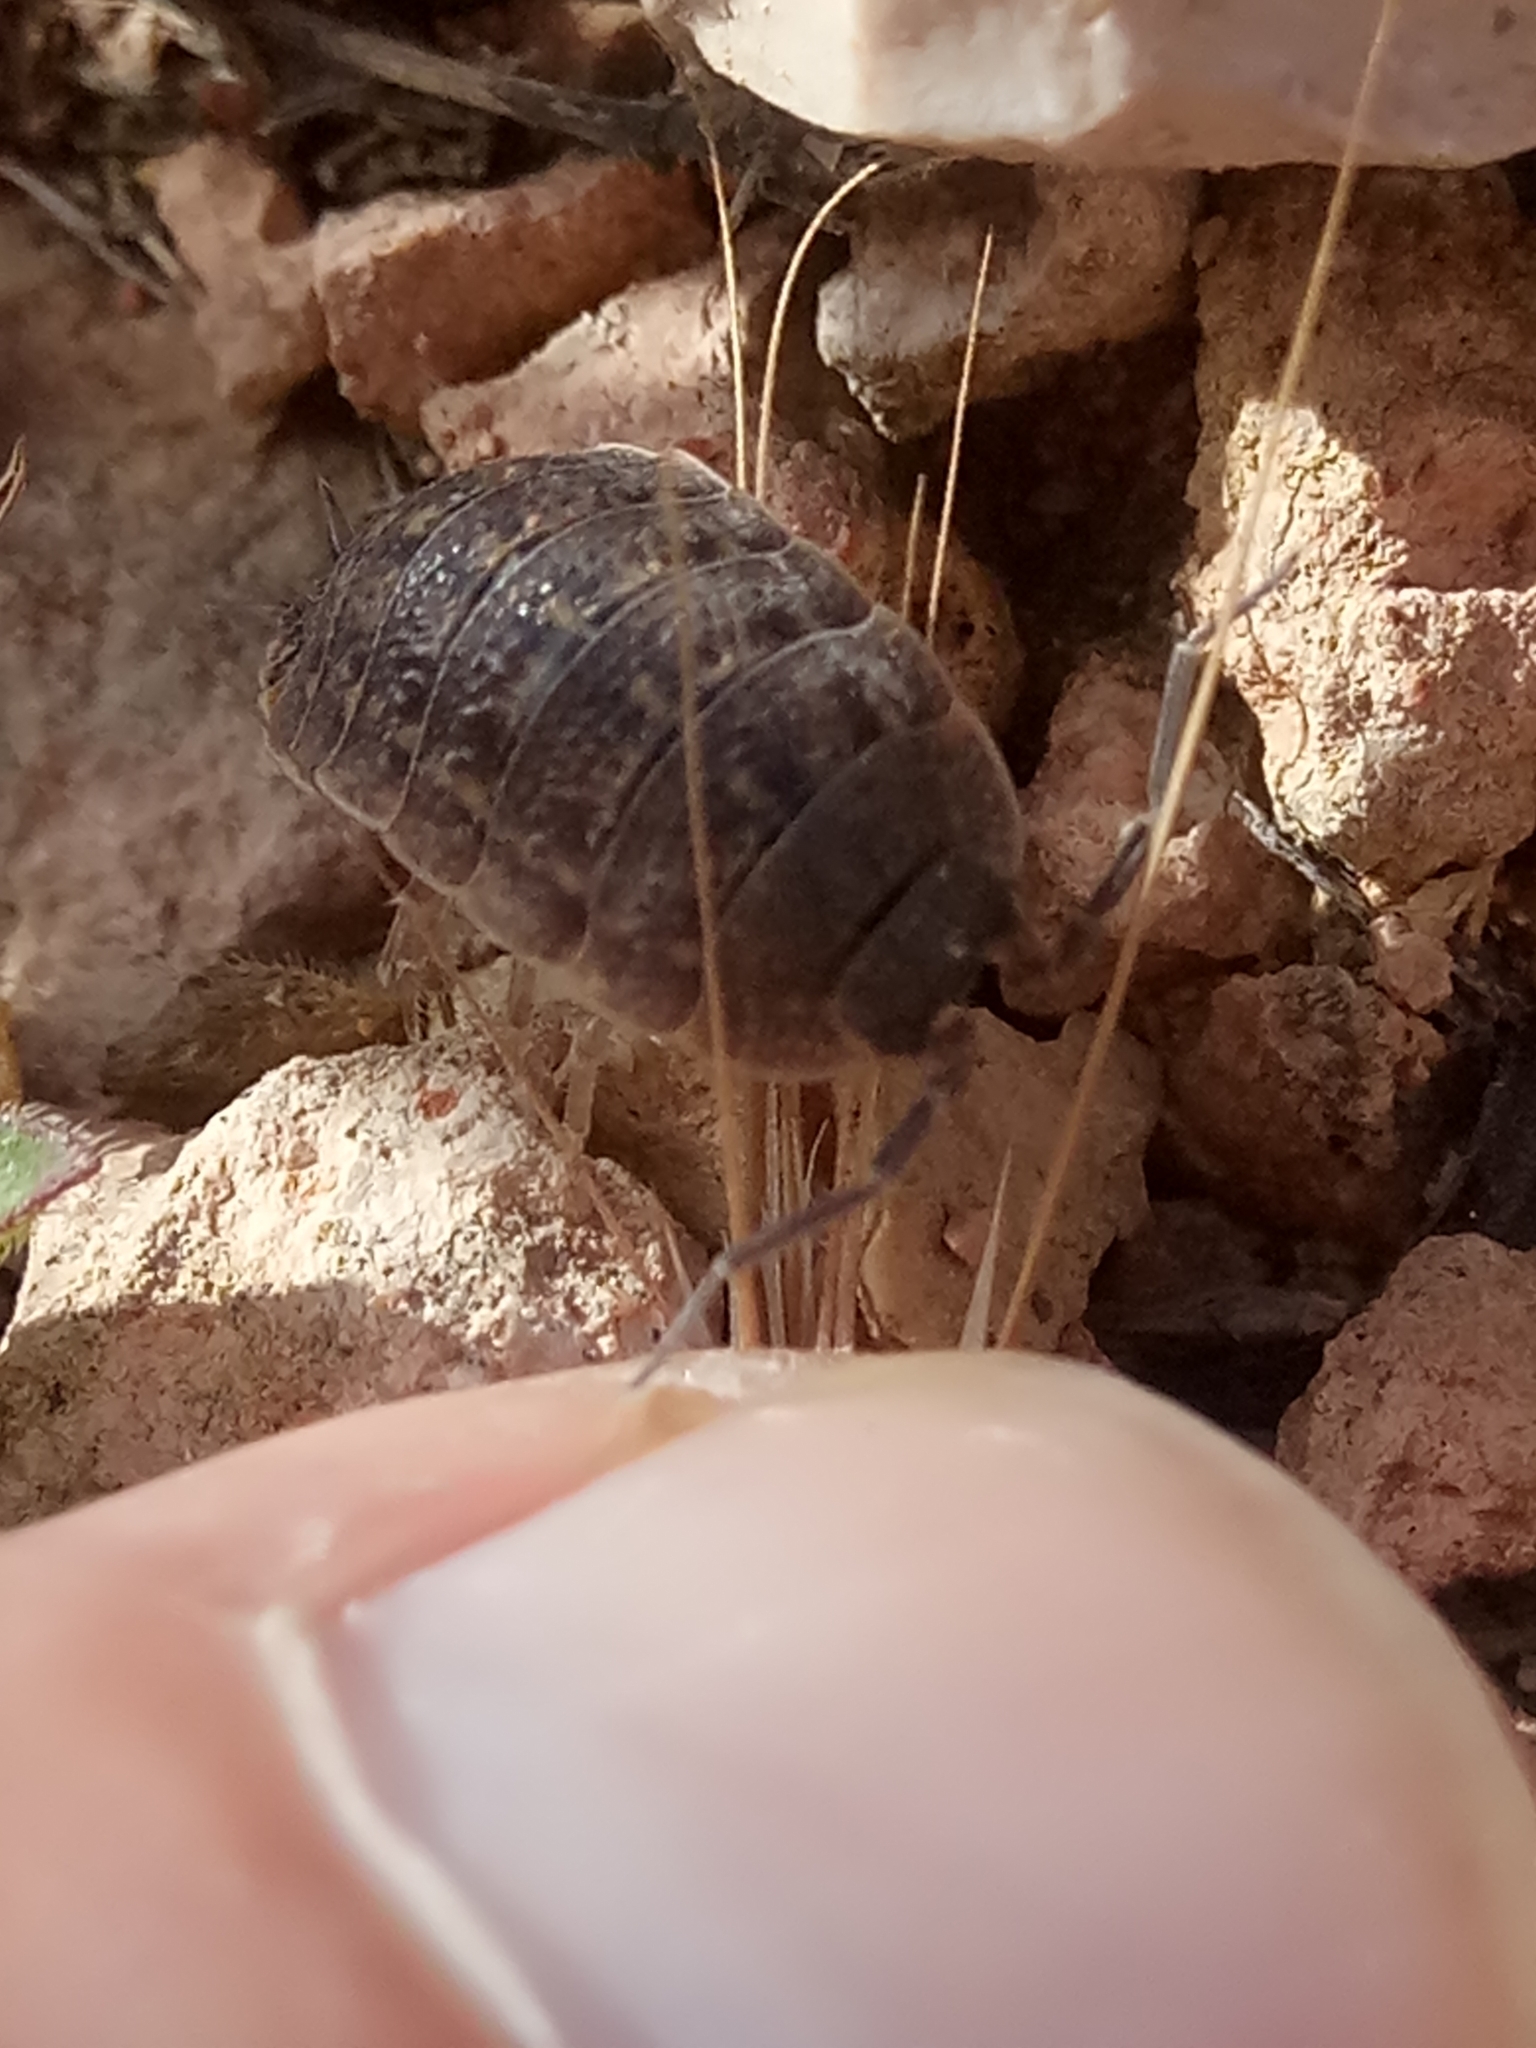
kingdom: Animalia
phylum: Arthropoda
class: Malacostraca
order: Isopoda
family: Porcellionidae
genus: Porcellio
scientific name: Porcellio variabilis
